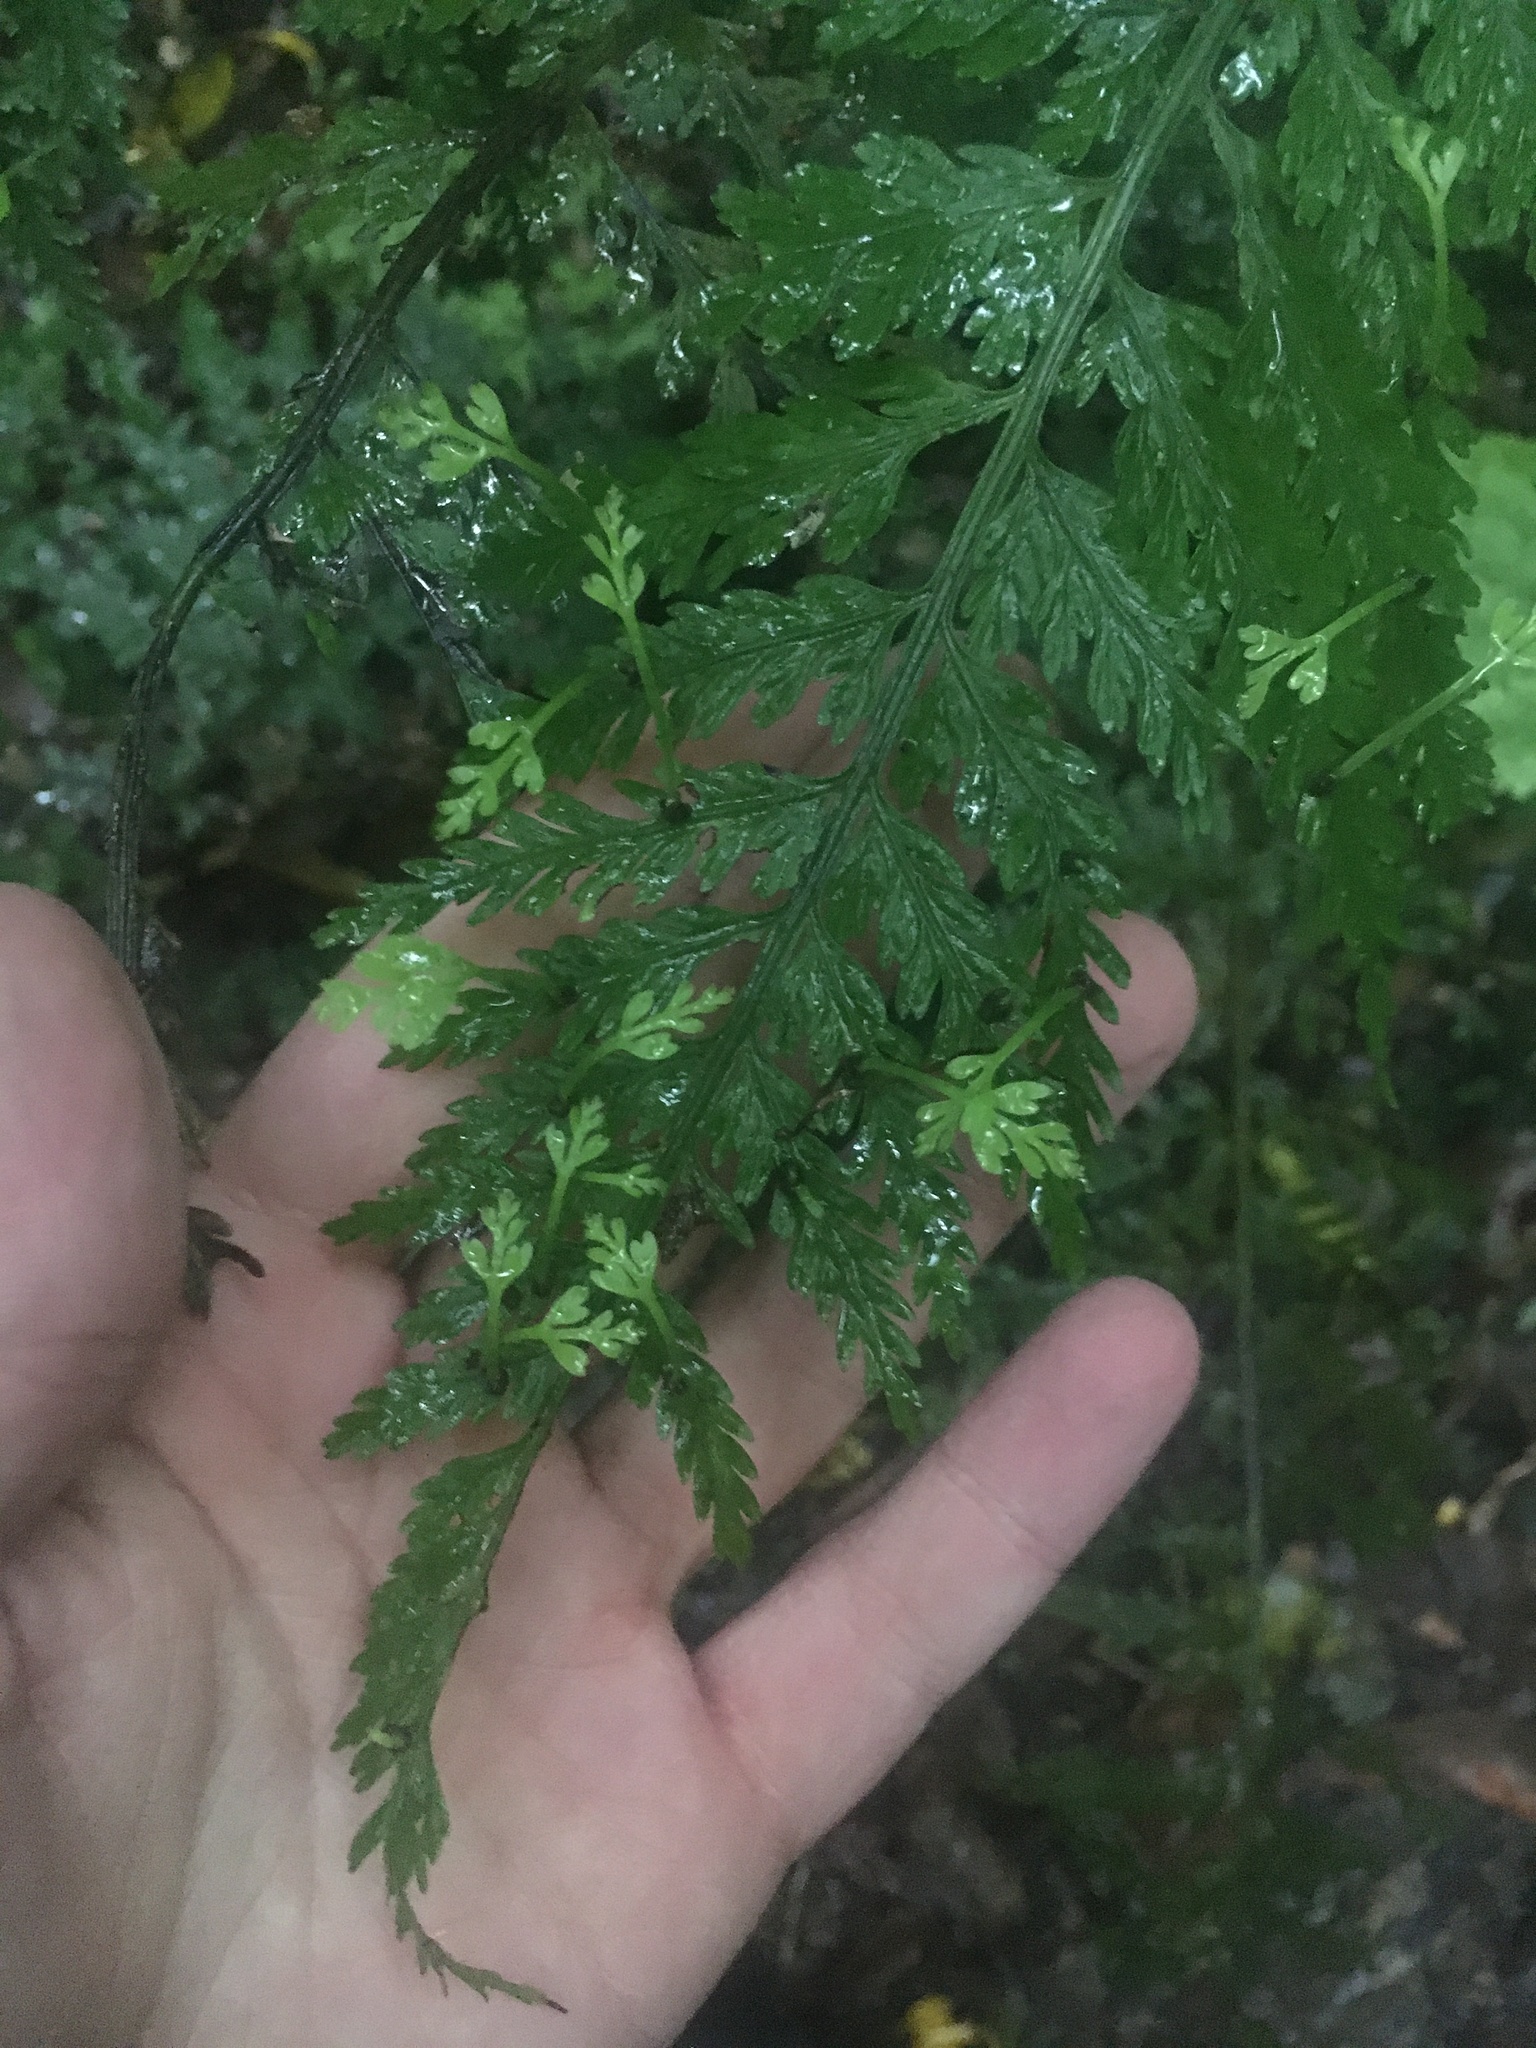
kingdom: Plantae
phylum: Tracheophyta
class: Polypodiopsida
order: Polypodiales
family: Aspleniaceae
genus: Asplenium
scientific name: Asplenium bulbiferum
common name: Mother fern
